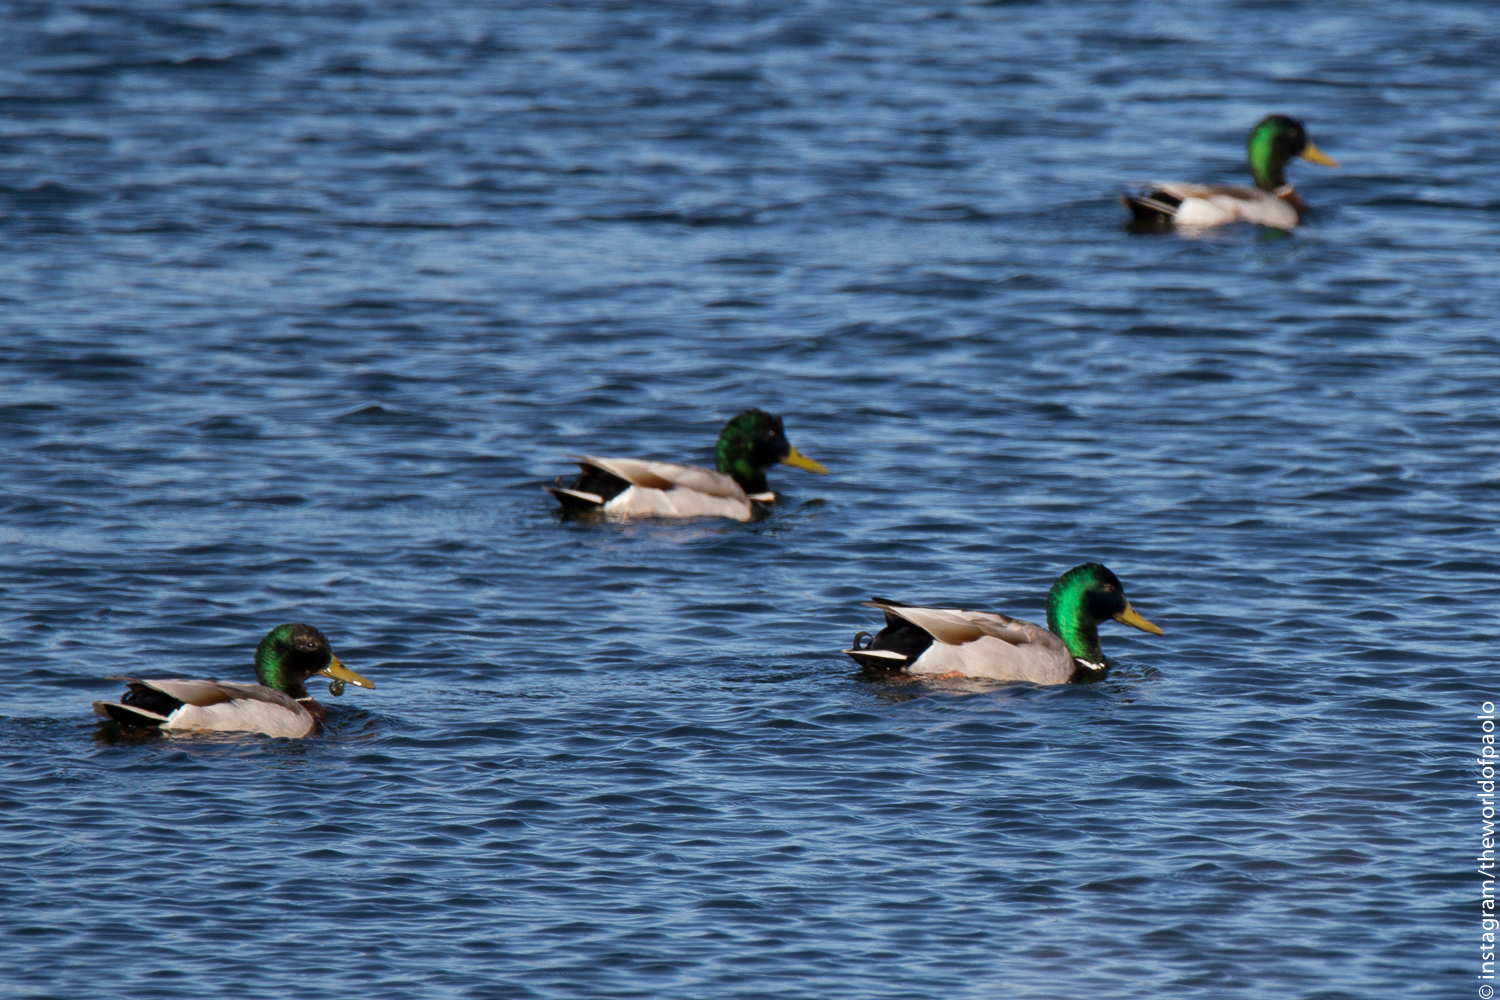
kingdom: Animalia
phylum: Chordata
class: Aves
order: Anseriformes
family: Anatidae
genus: Anas
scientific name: Anas platyrhynchos
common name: Mallard
